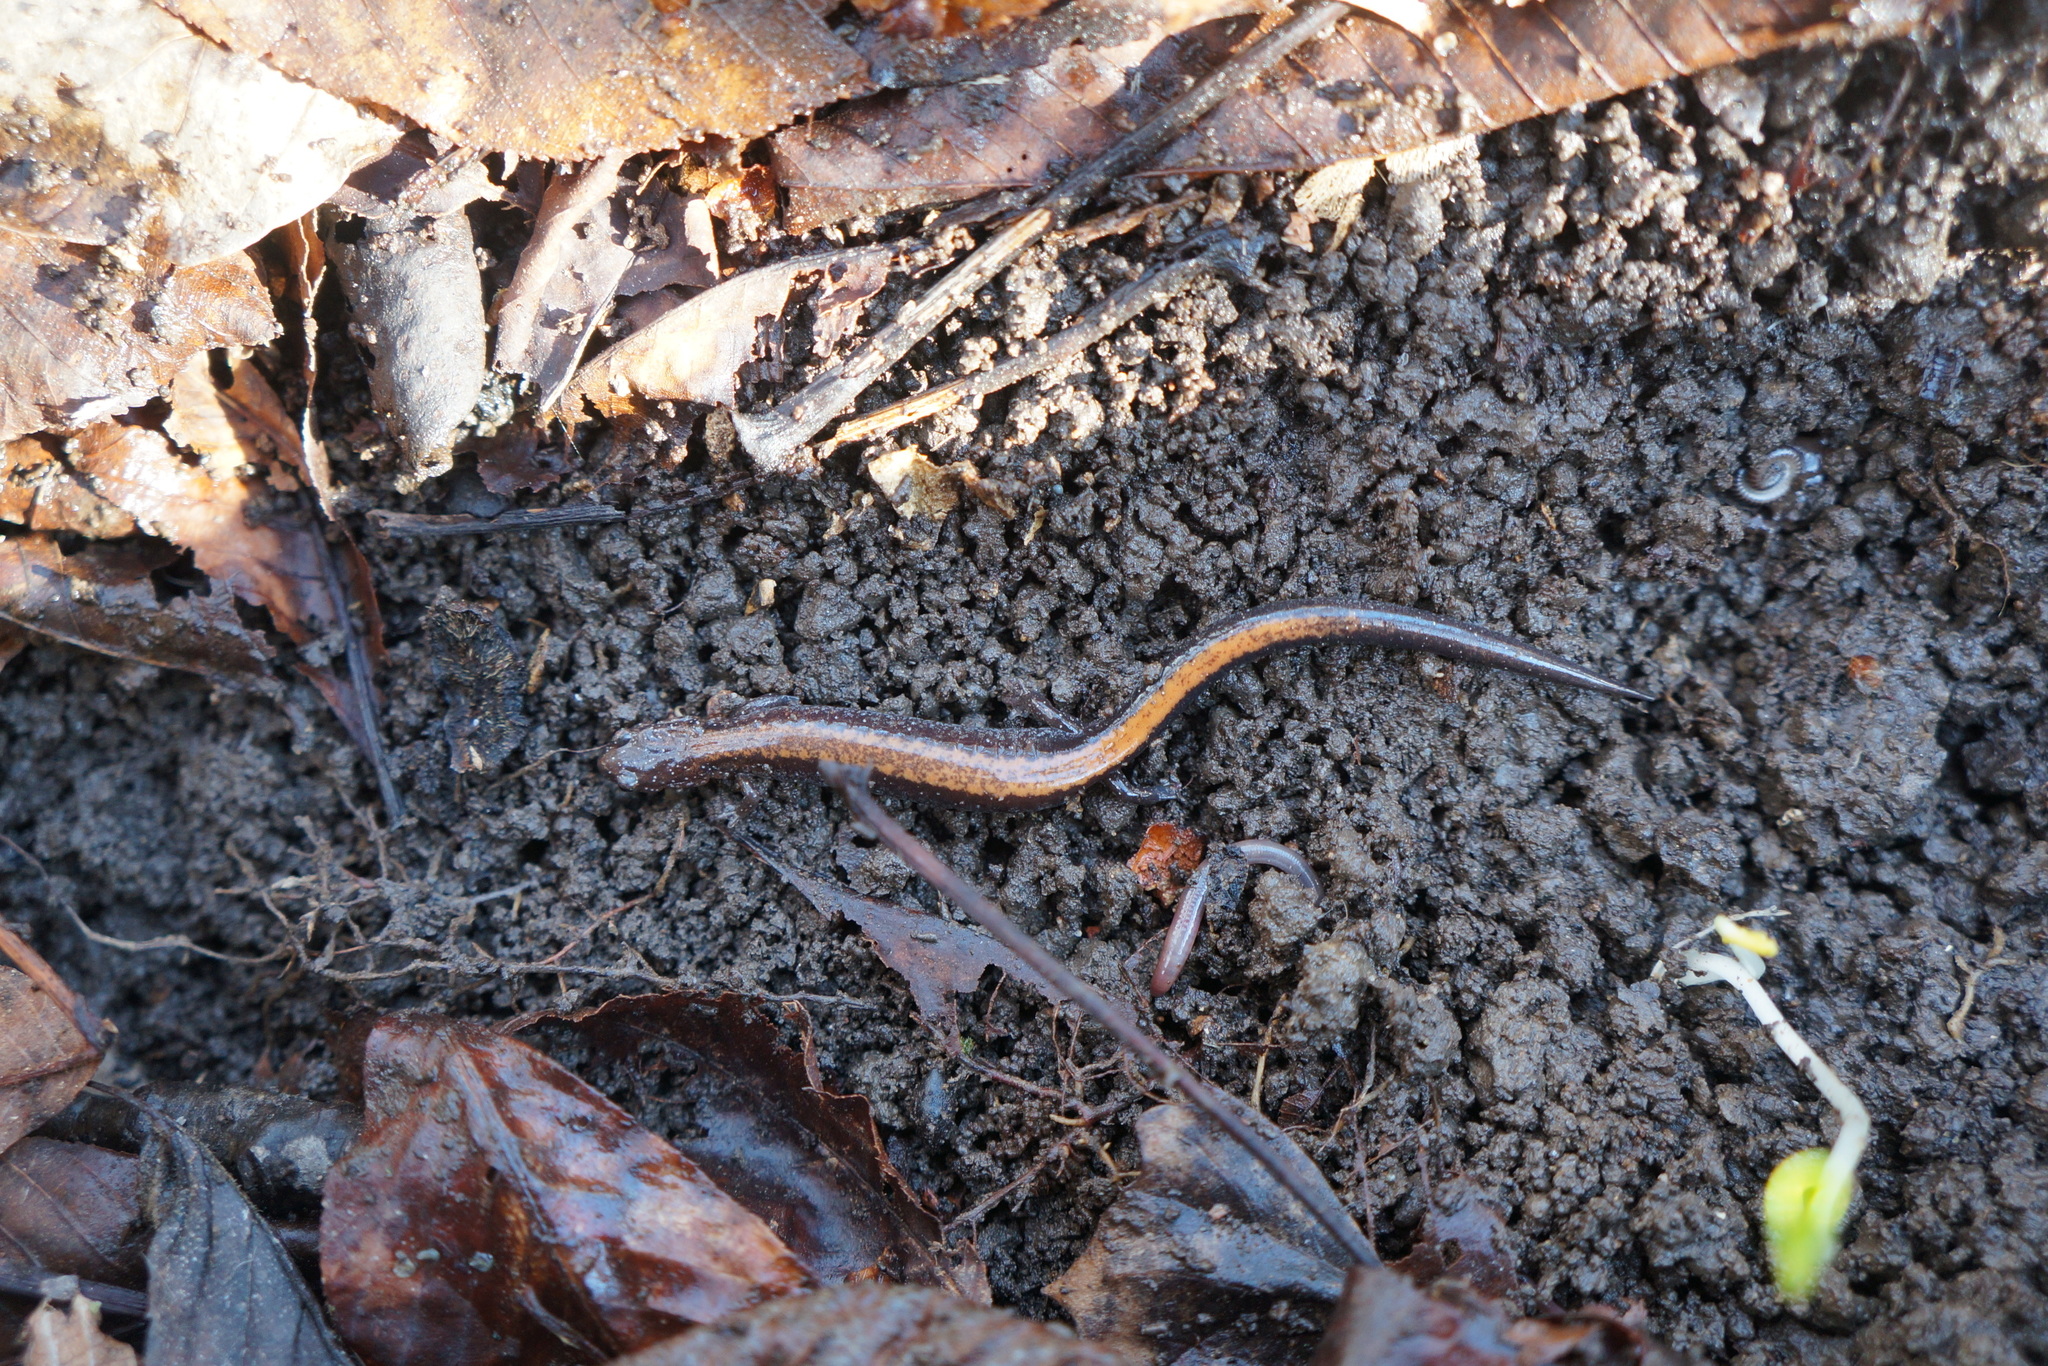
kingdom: Animalia
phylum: Chordata
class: Amphibia
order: Caudata
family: Plethodontidae
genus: Plethodon
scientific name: Plethodon cinereus
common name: Redback salamander
